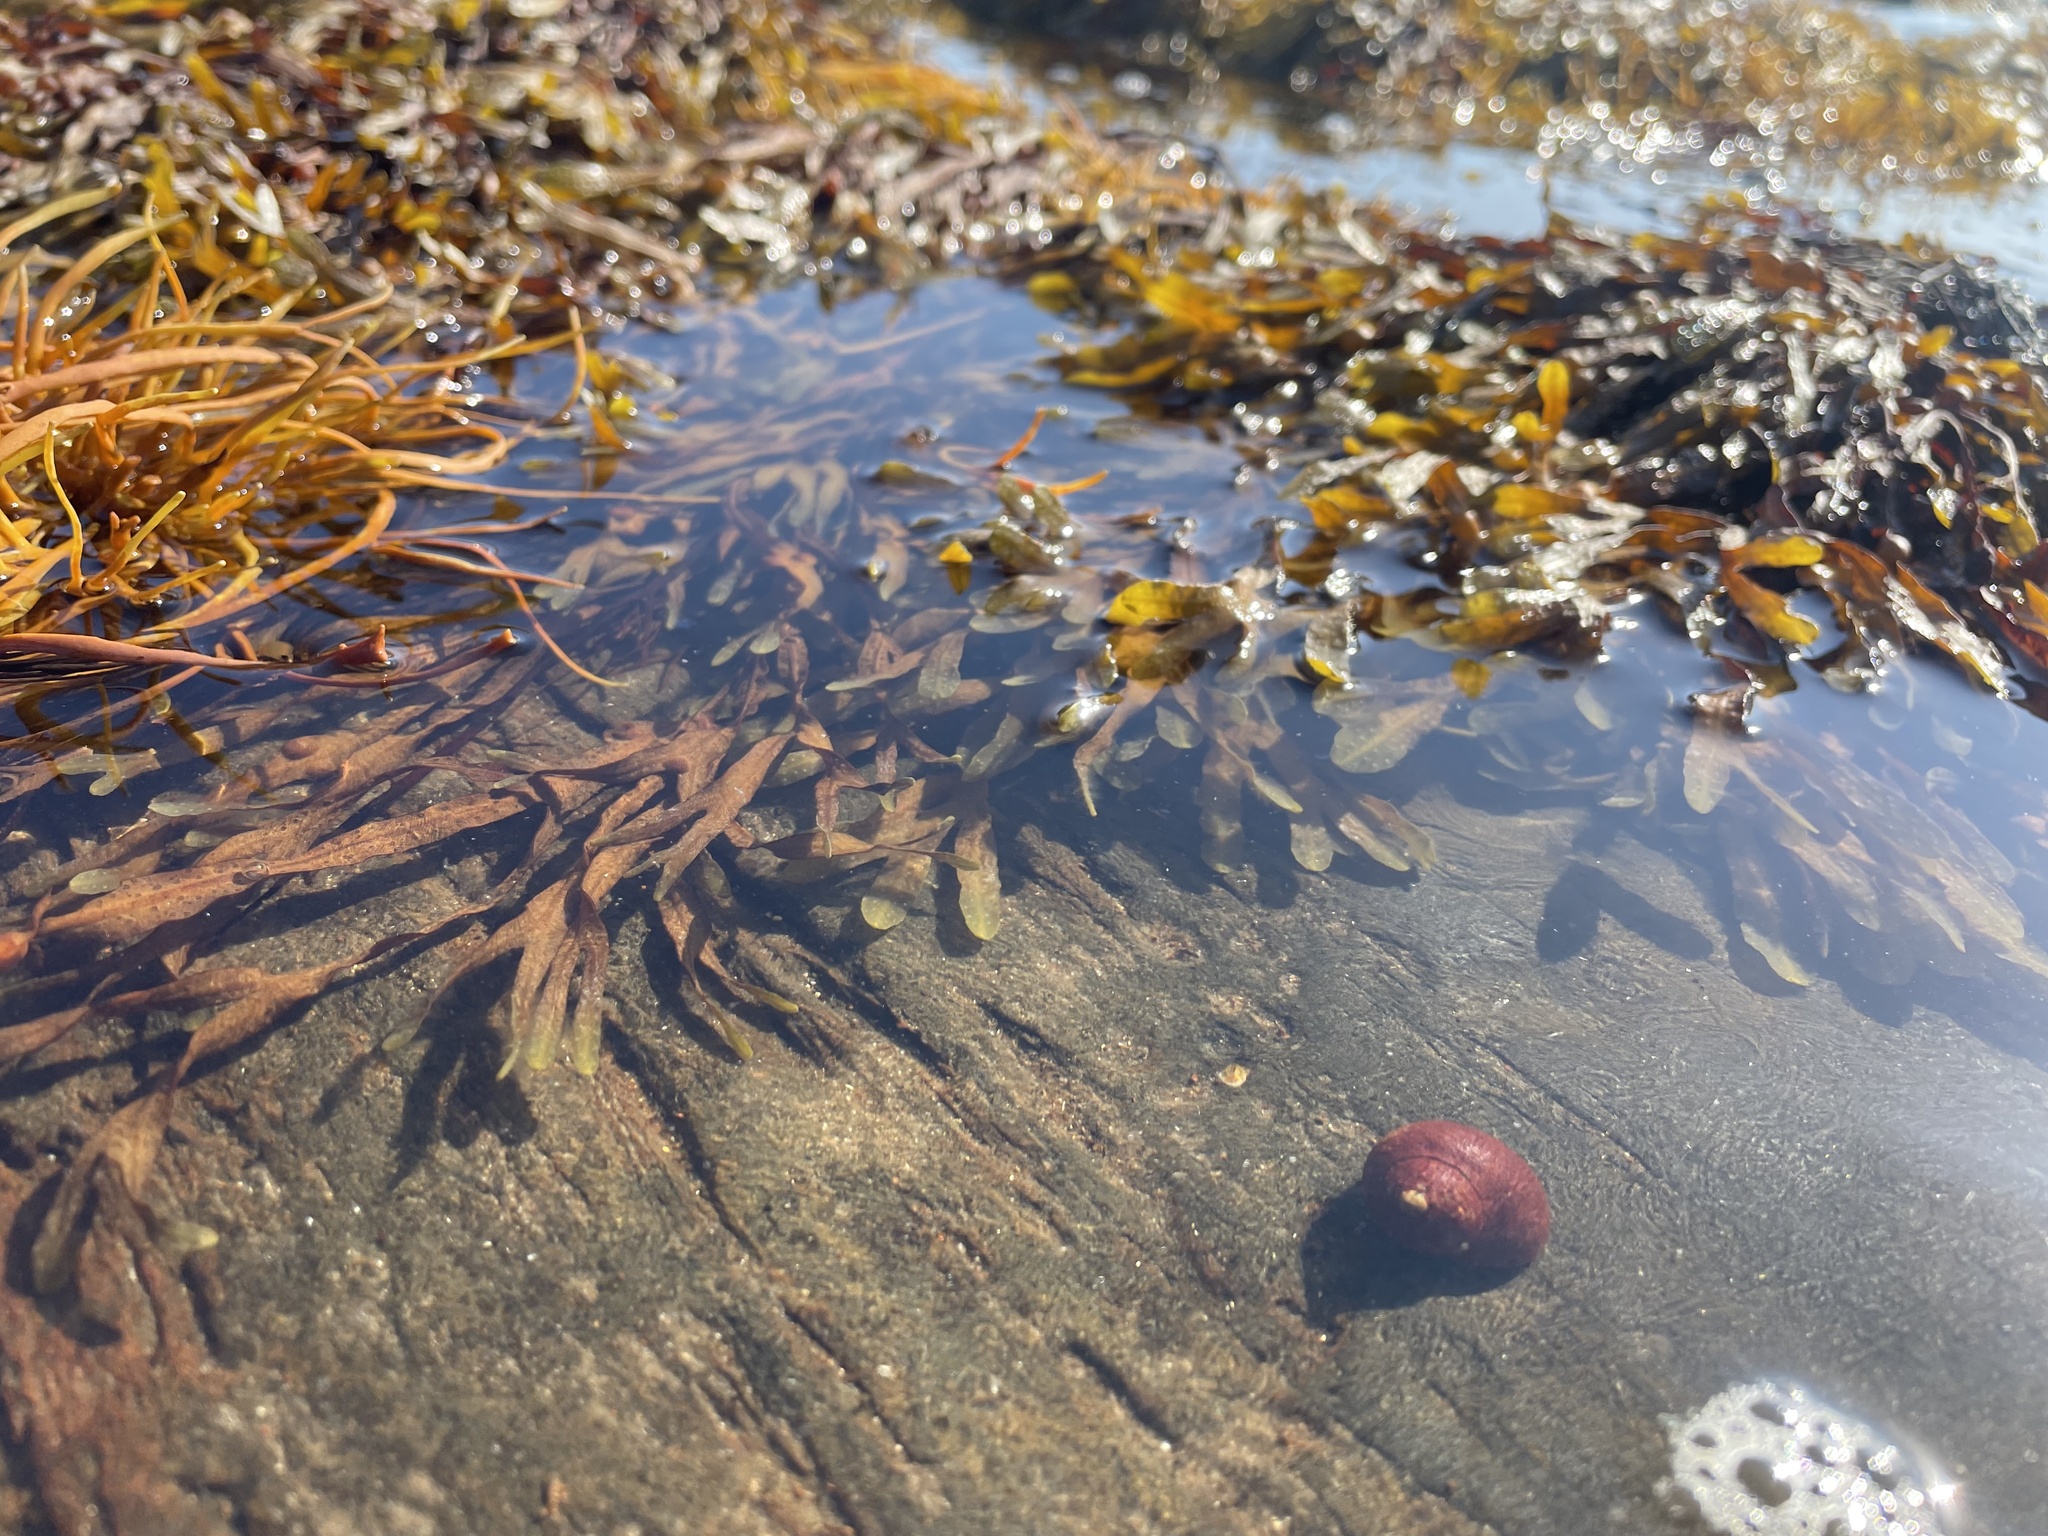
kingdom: Animalia
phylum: Mollusca
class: Gastropoda
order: Littorinimorpha
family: Littorinidae
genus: Littorina
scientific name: Littorina littorea
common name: Common periwinkle
